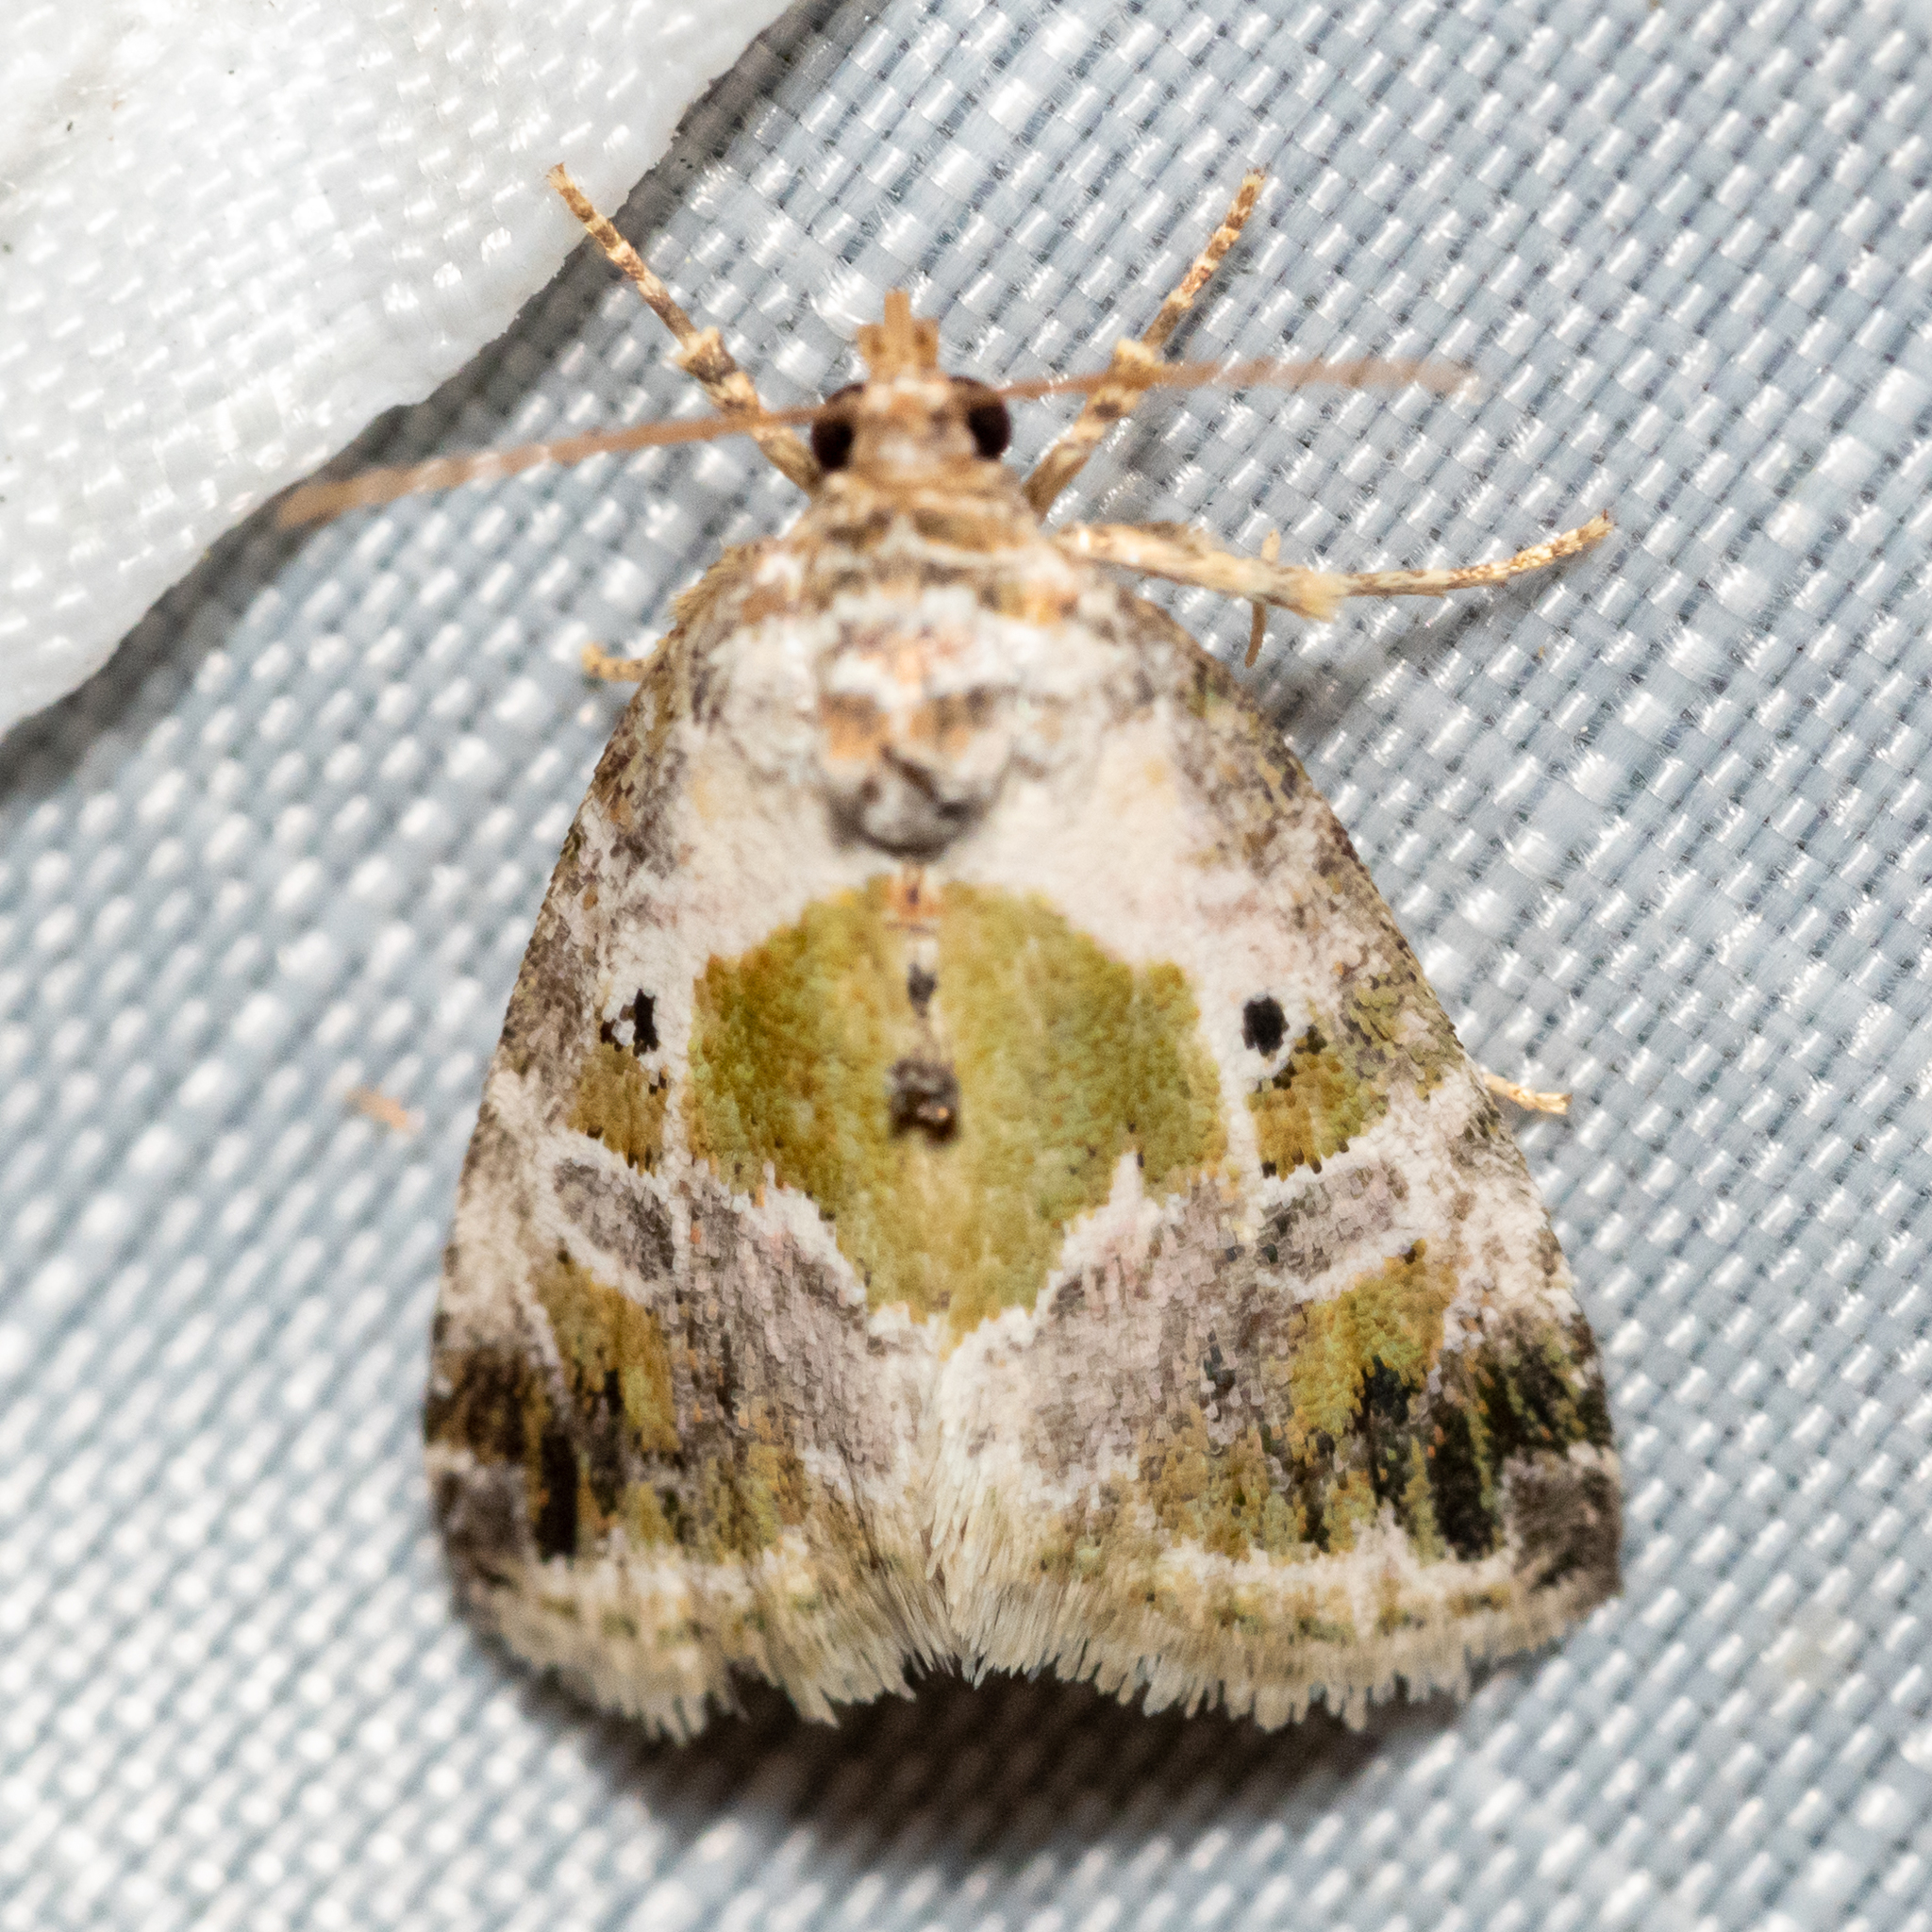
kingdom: Animalia
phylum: Arthropoda
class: Insecta
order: Lepidoptera
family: Noctuidae
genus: Maliattha
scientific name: Maliattha synochitis
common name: Black-dotted glyph
